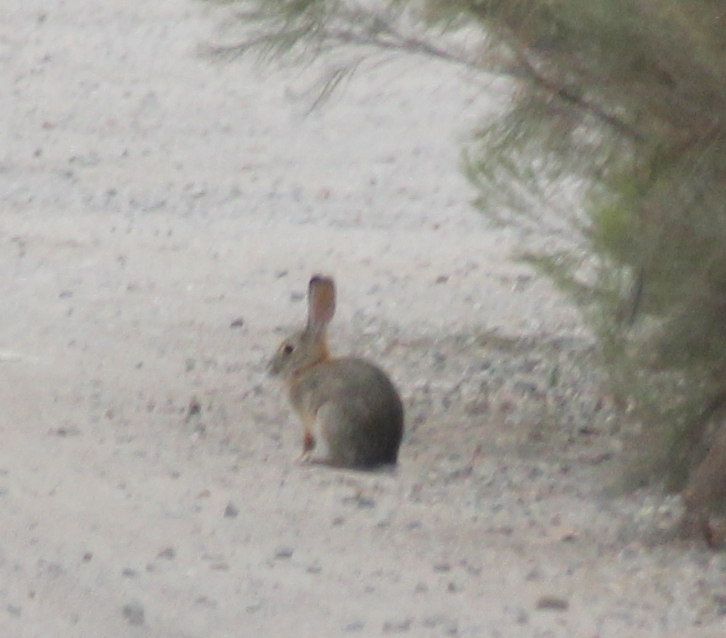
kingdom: Animalia
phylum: Chordata
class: Mammalia
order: Lagomorpha
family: Leporidae
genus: Sylvilagus
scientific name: Sylvilagus audubonii
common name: Desert cottontail
